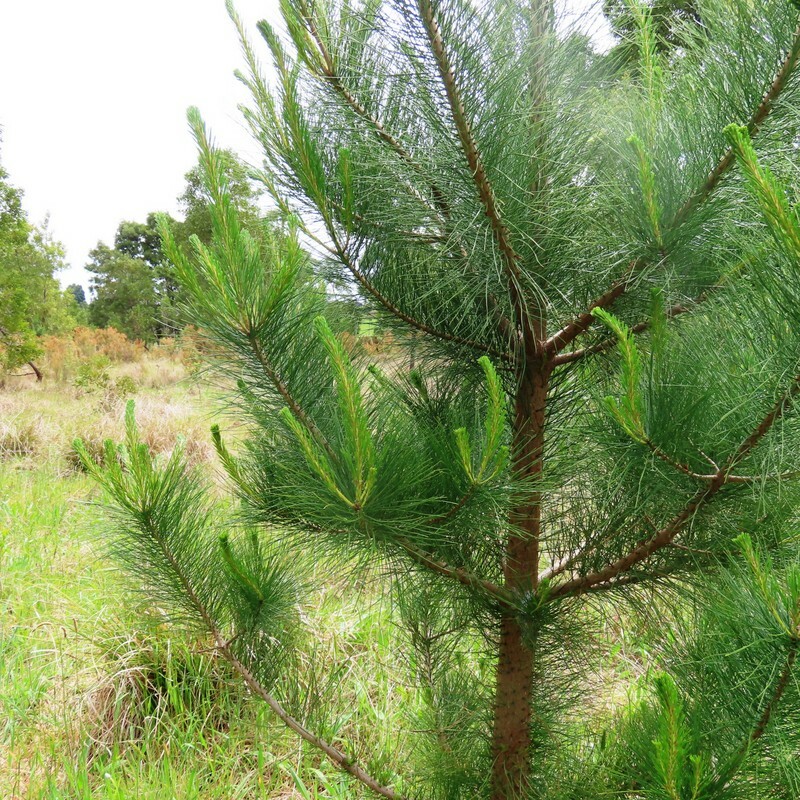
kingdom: Plantae
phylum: Tracheophyta
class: Pinopsida
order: Pinales
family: Pinaceae
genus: Pinus
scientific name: Pinus radiata
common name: Monterey pine
